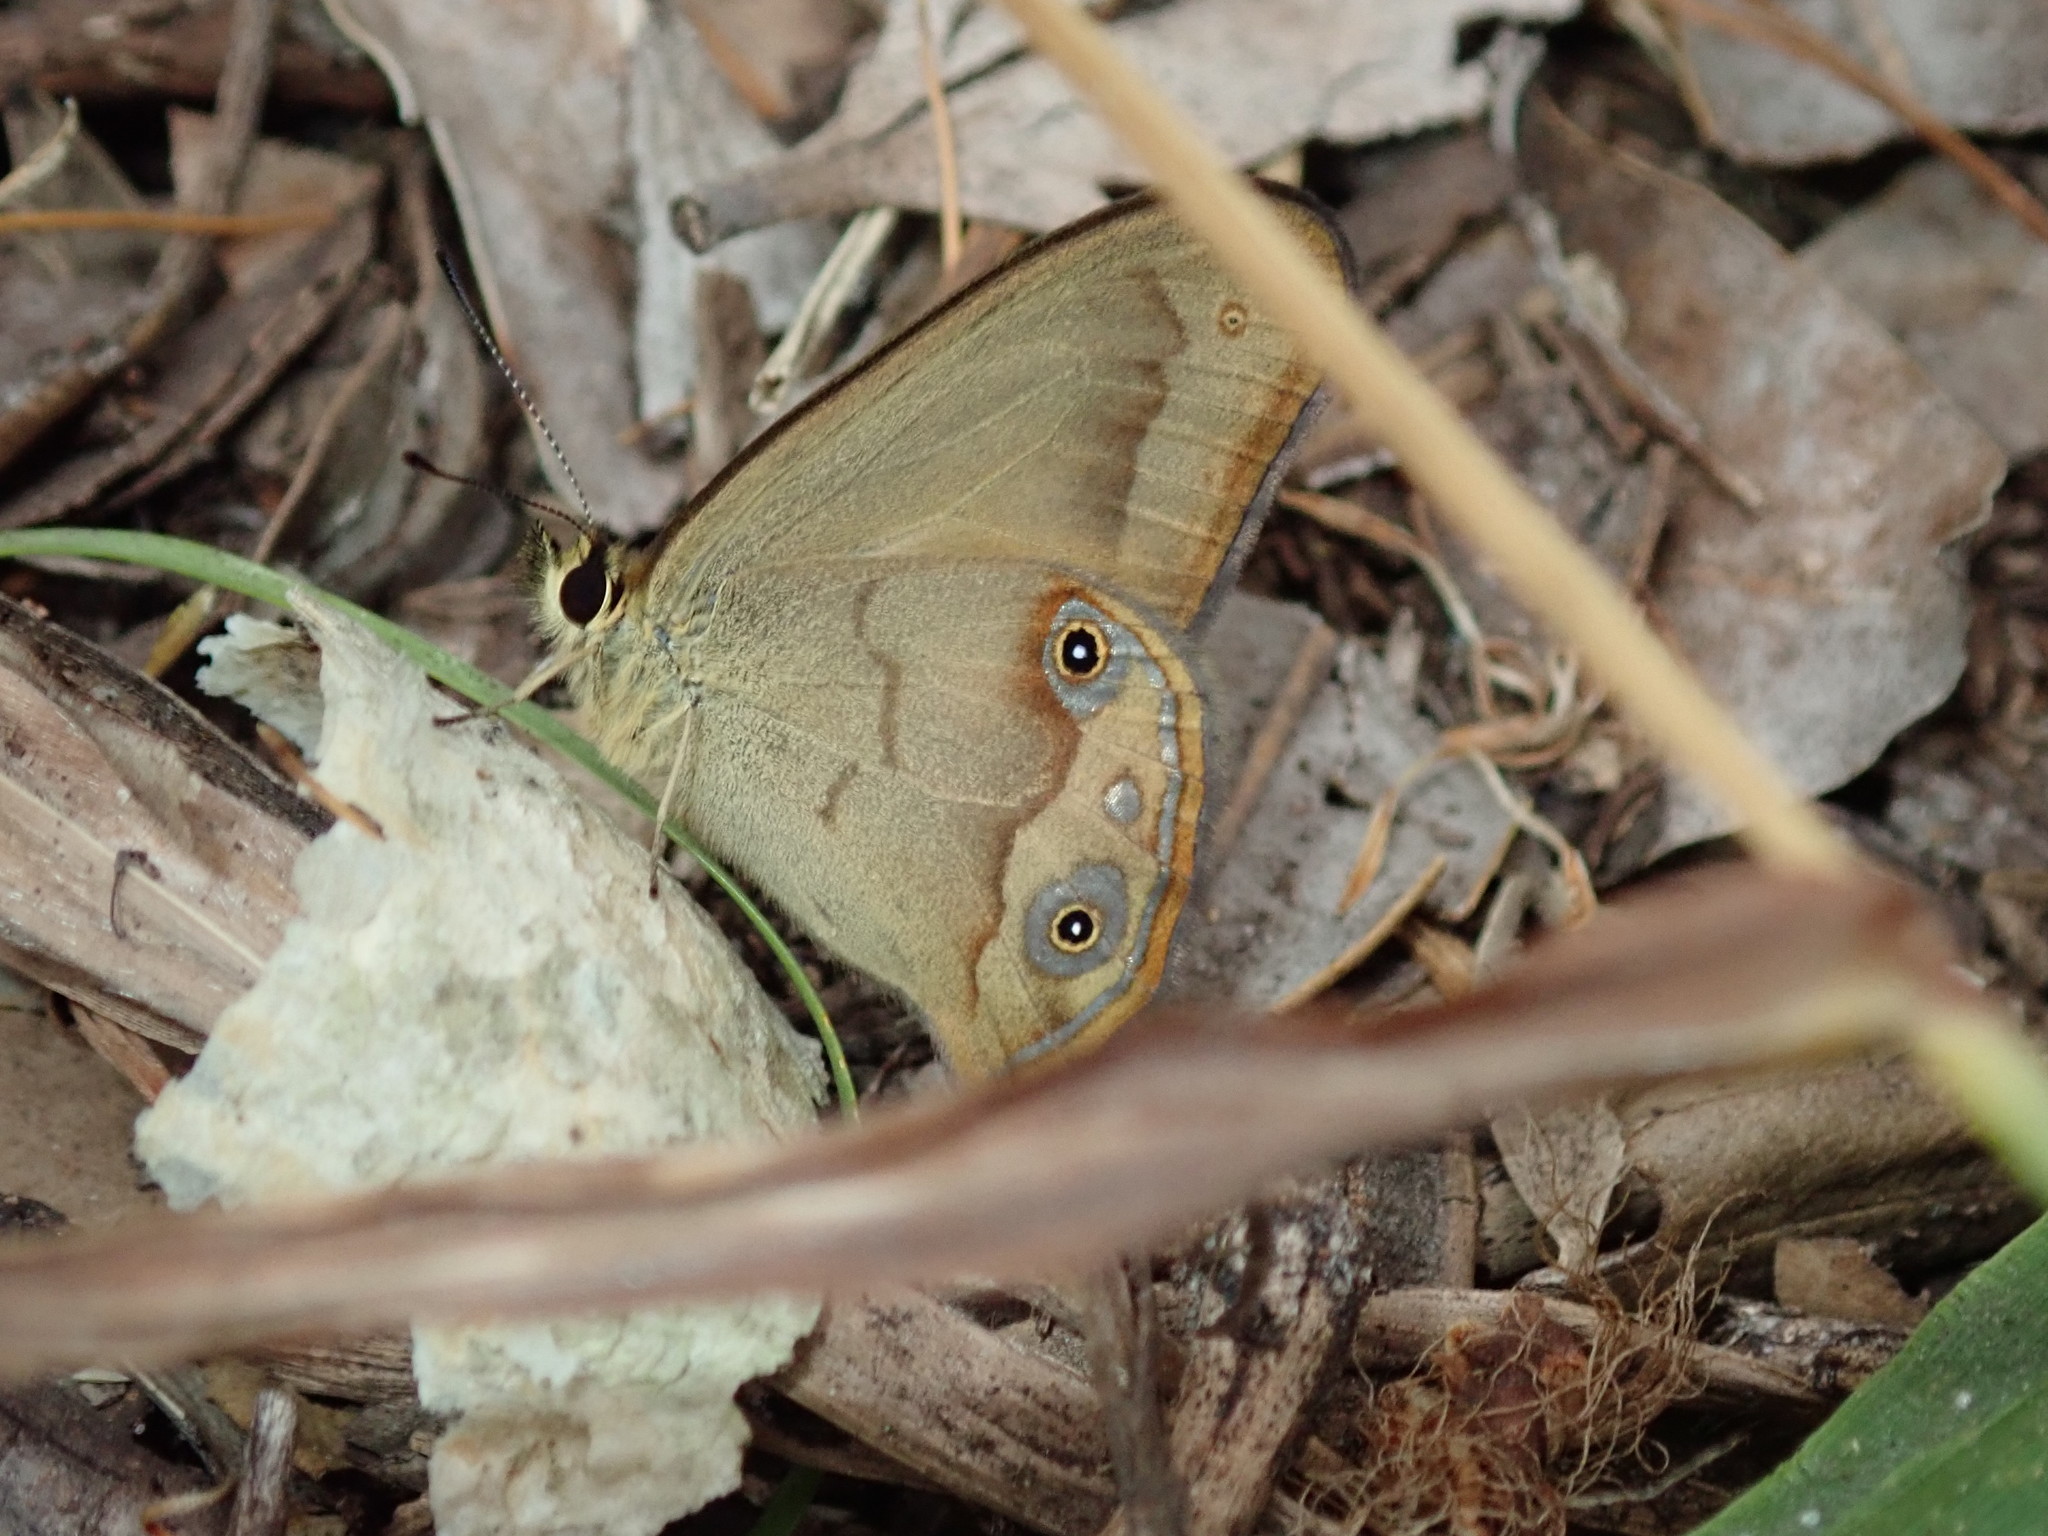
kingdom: Animalia
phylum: Arthropoda
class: Insecta
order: Lepidoptera
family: Nymphalidae
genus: Hypocysta
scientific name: Hypocysta metirius
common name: Brown ringlet
